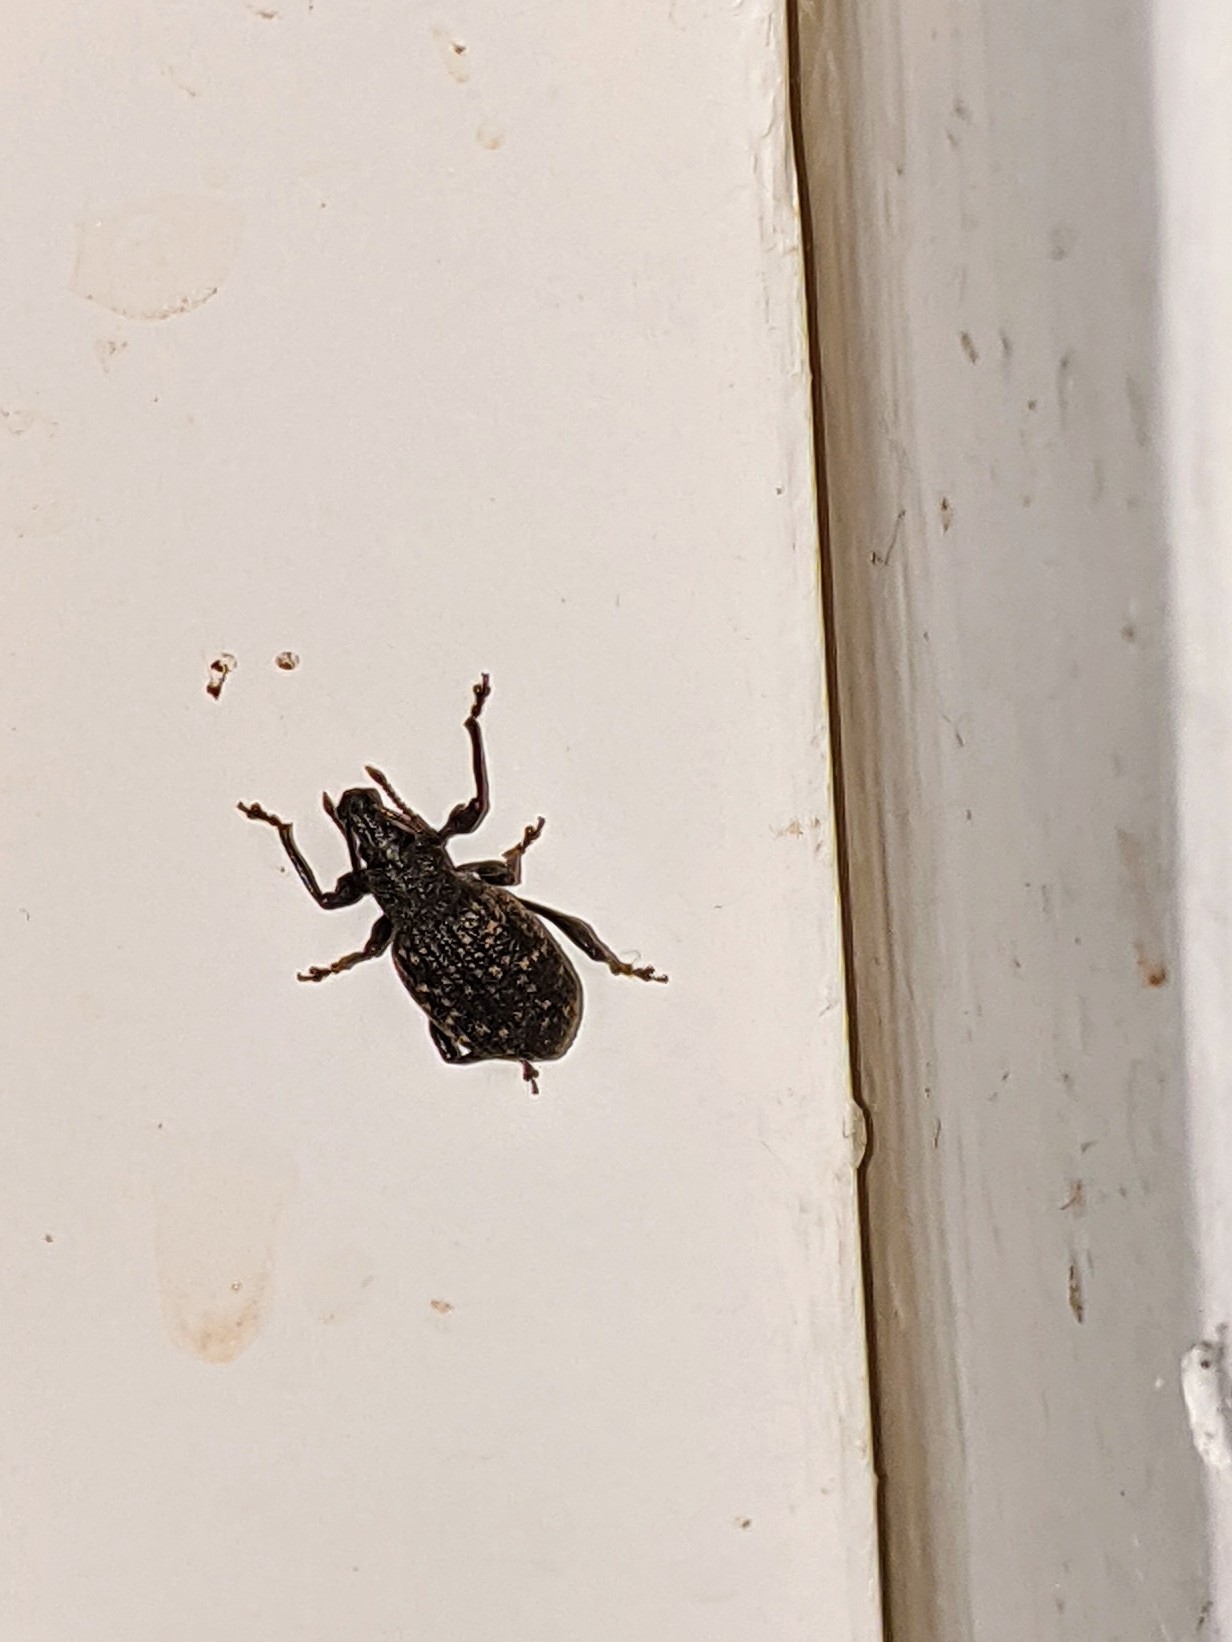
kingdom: Animalia
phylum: Arthropoda
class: Insecta
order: Coleoptera
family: Curculionidae
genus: Otiorhynchus
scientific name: Otiorhynchus sulcatus
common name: Black vine weevil
